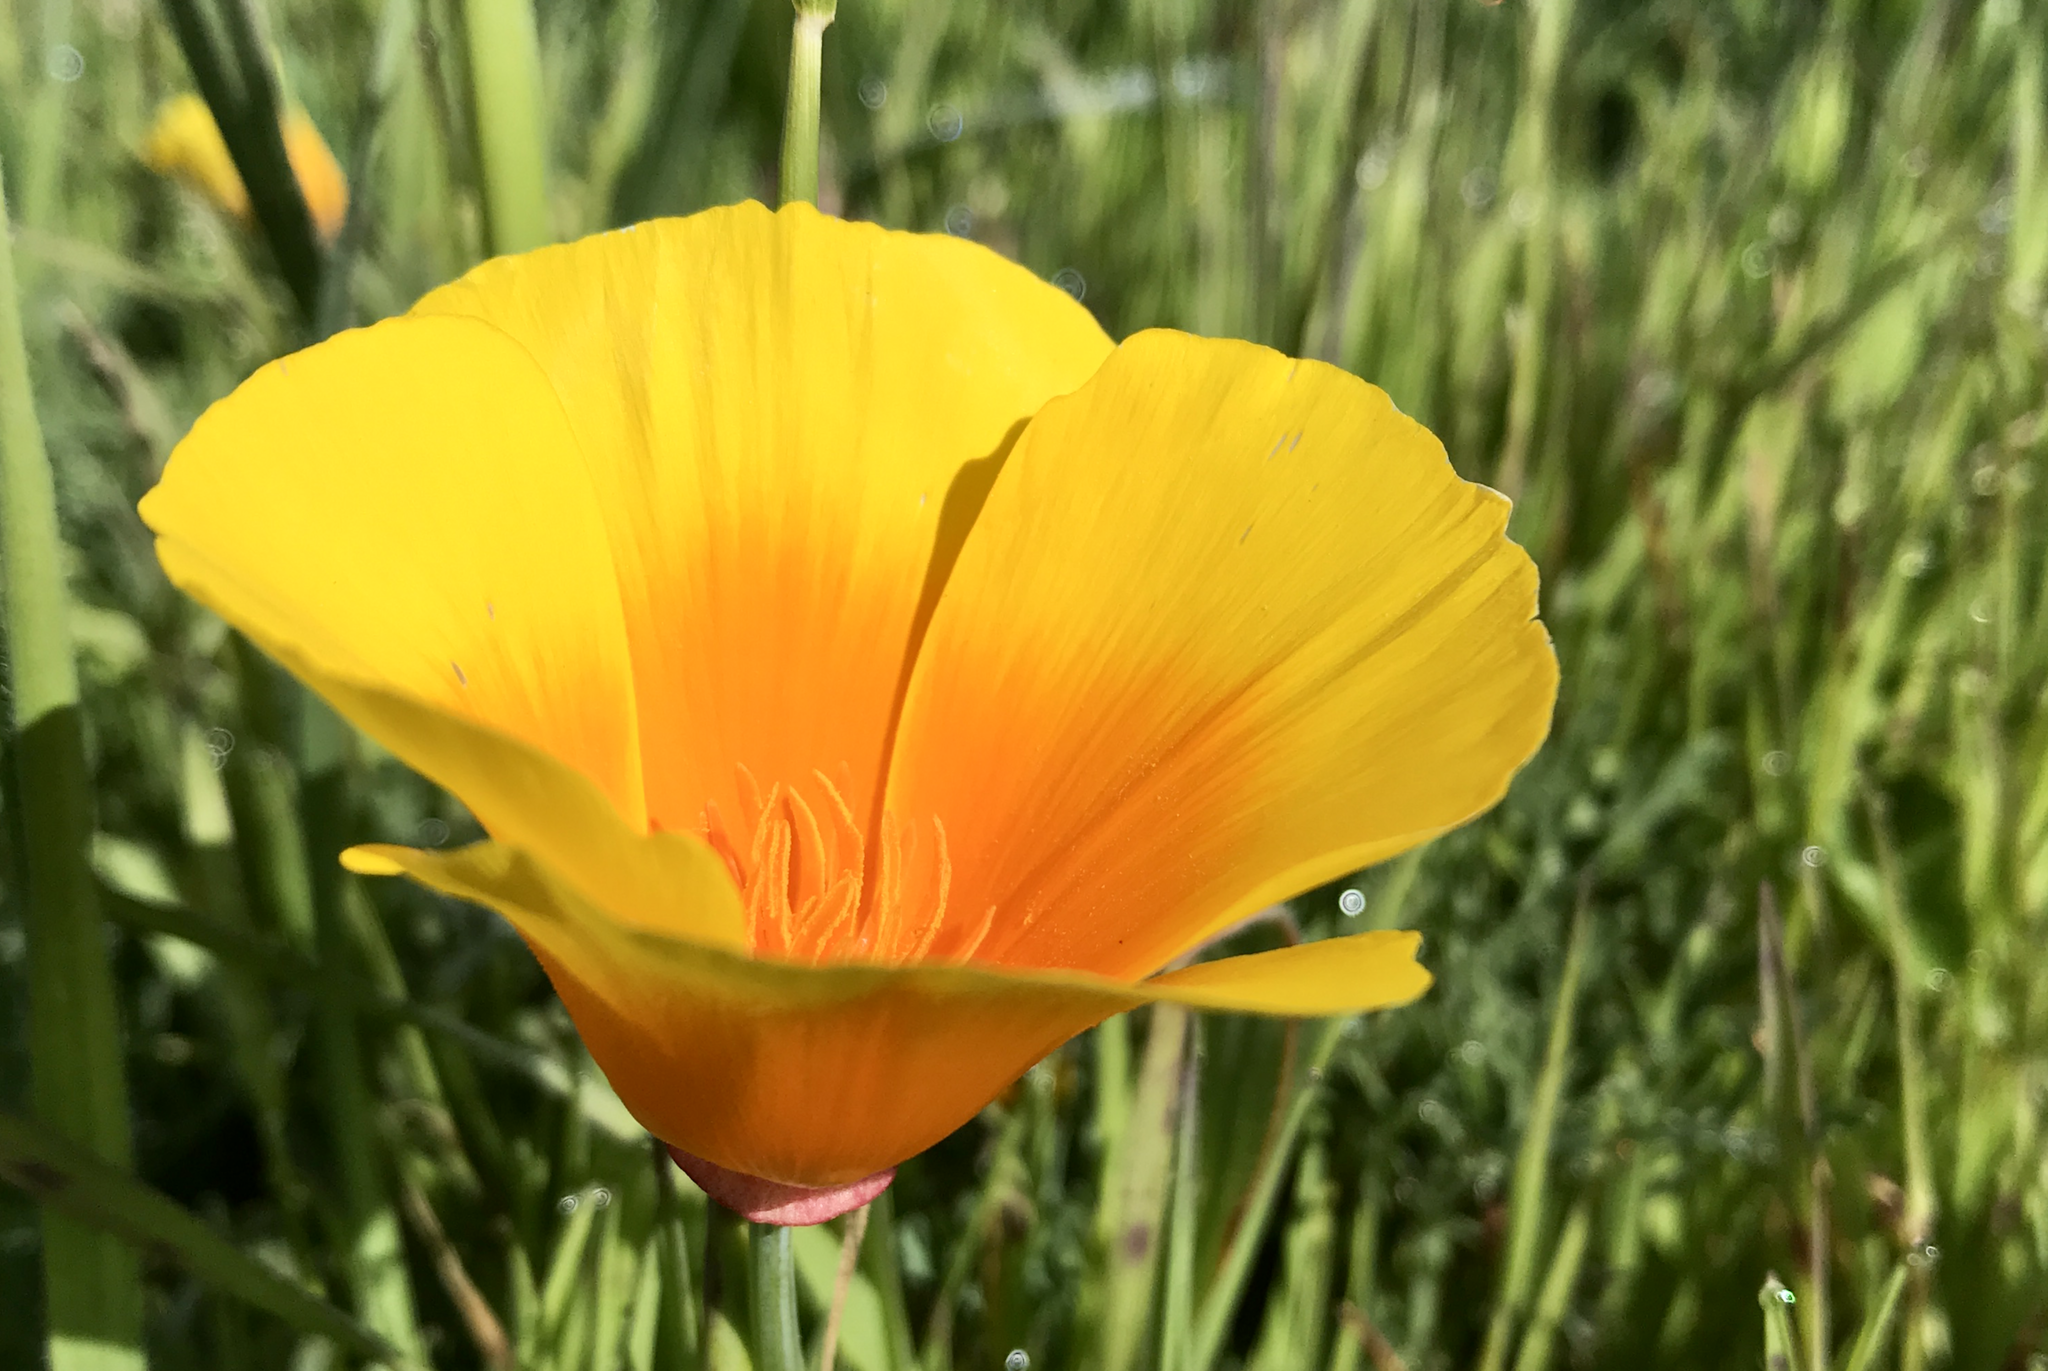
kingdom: Plantae
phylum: Tracheophyta
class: Magnoliopsida
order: Ranunculales
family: Papaveraceae
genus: Eschscholzia
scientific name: Eschscholzia californica
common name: California poppy
